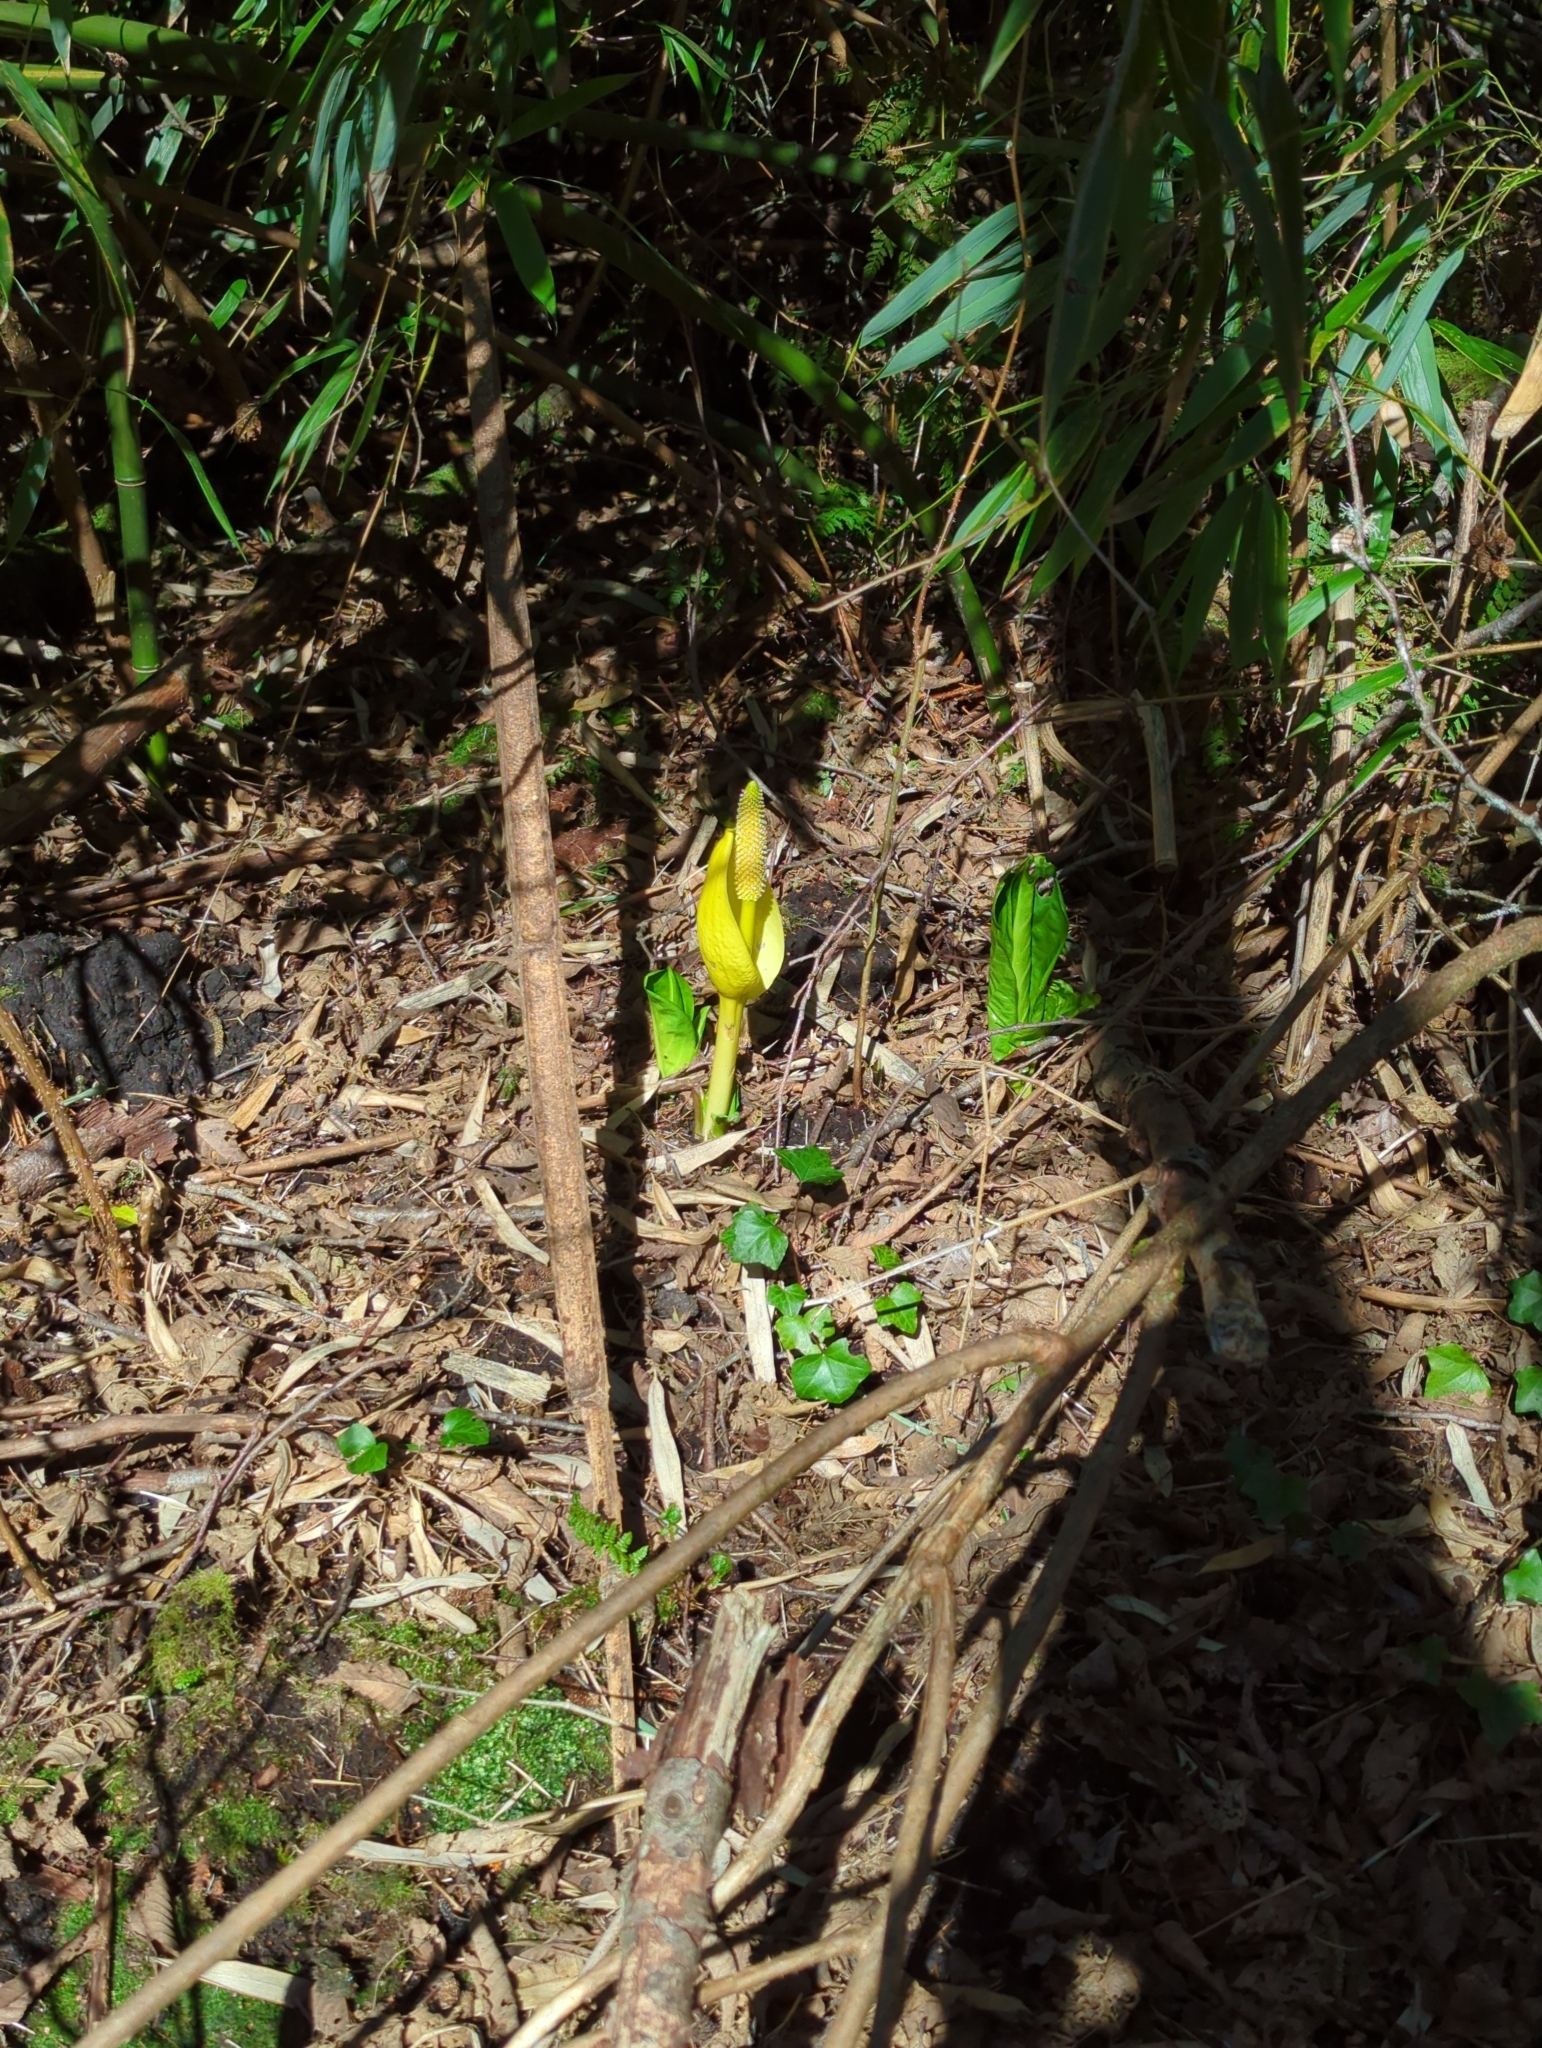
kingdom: Plantae
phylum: Tracheophyta
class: Liliopsida
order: Alismatales
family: Araceae
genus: Lysichiton
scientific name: Lysichiton americanus
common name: American skunk cabbage
